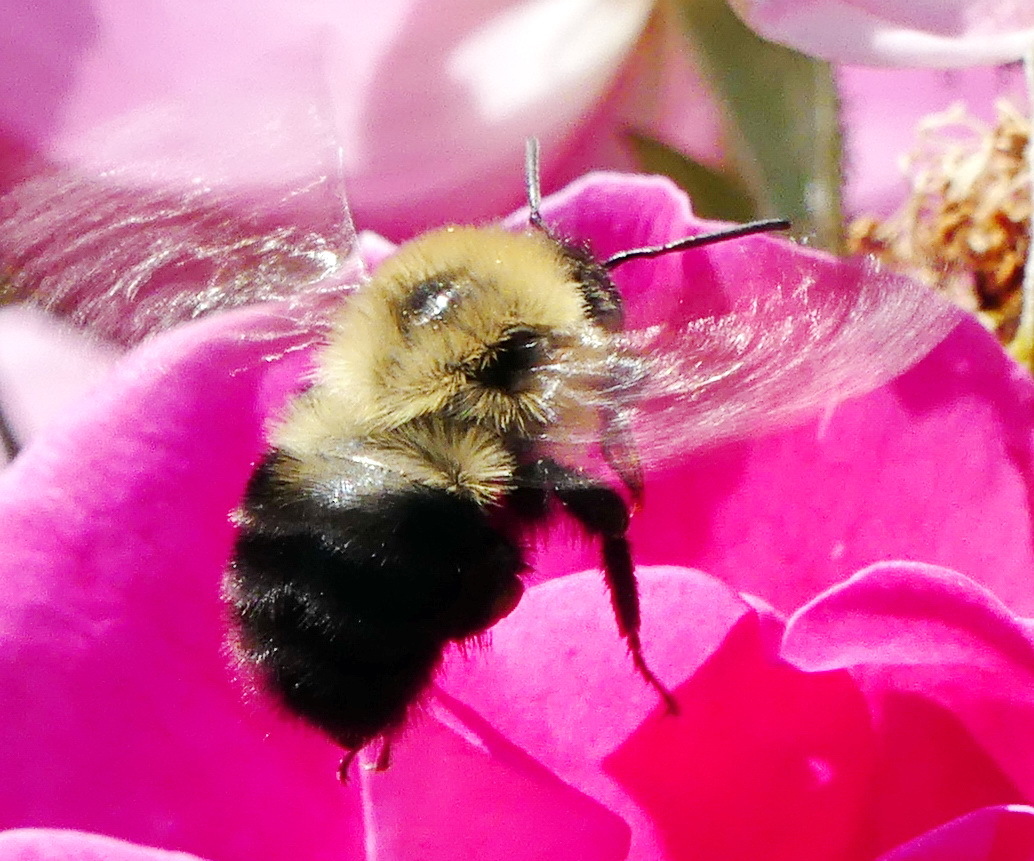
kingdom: Animalia
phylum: Arthropoda
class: Insecta
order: Hymenoptera
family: Apidae
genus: Bombus
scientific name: Bombus bimaculatus
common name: Two-spotted bumble bee
